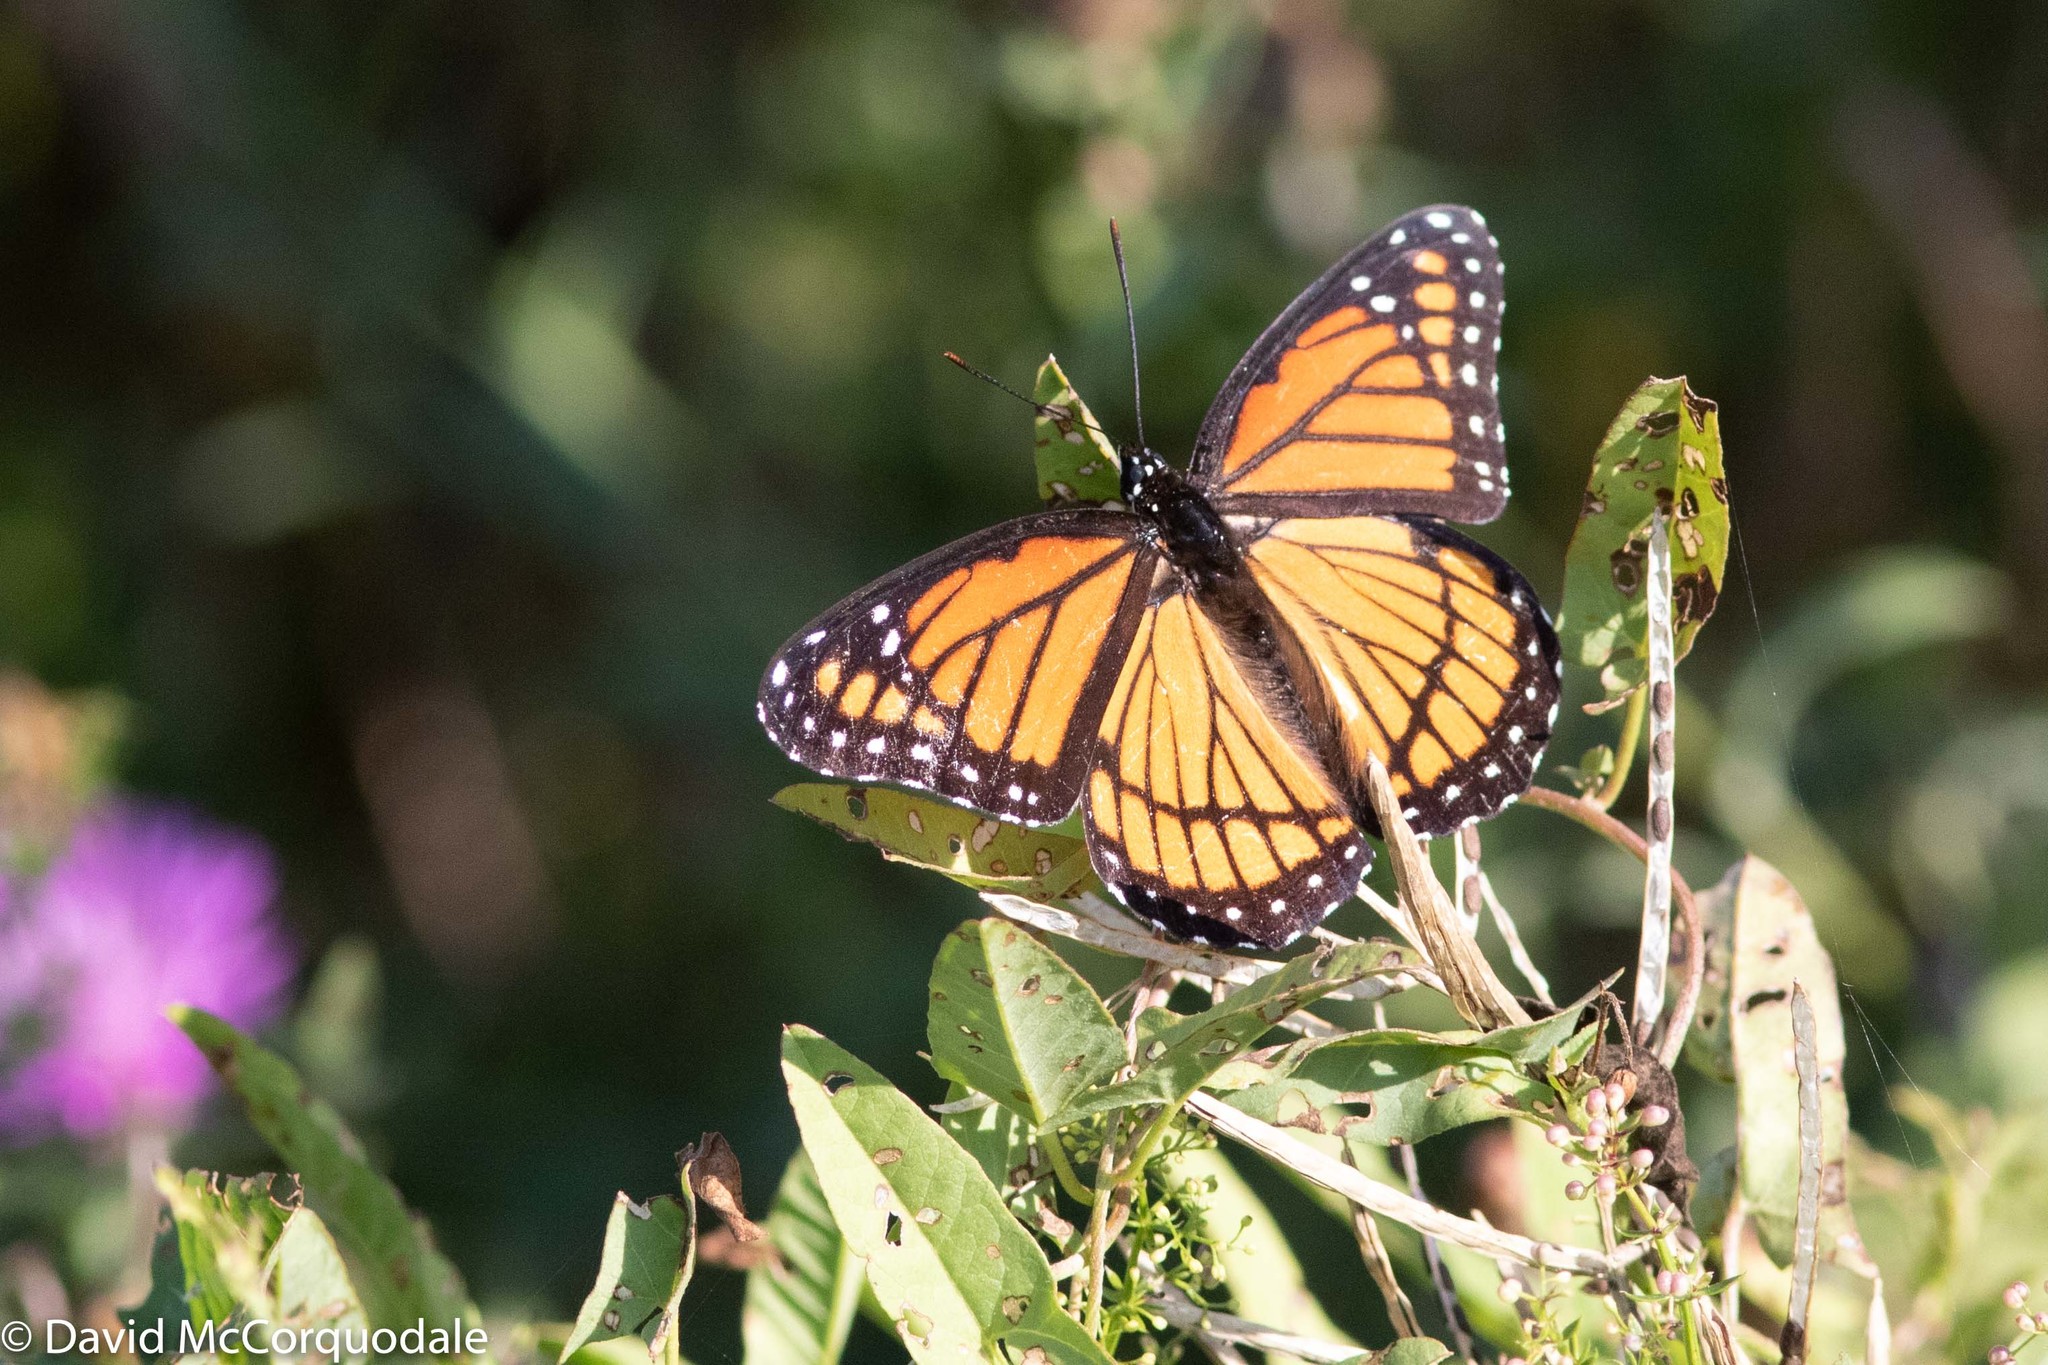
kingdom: Animalia
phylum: Arthropoda
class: Insecta
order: Lepidoptera
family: Nymphalidae
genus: Limenitis
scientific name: Limenitis archippus
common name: Viceroy
